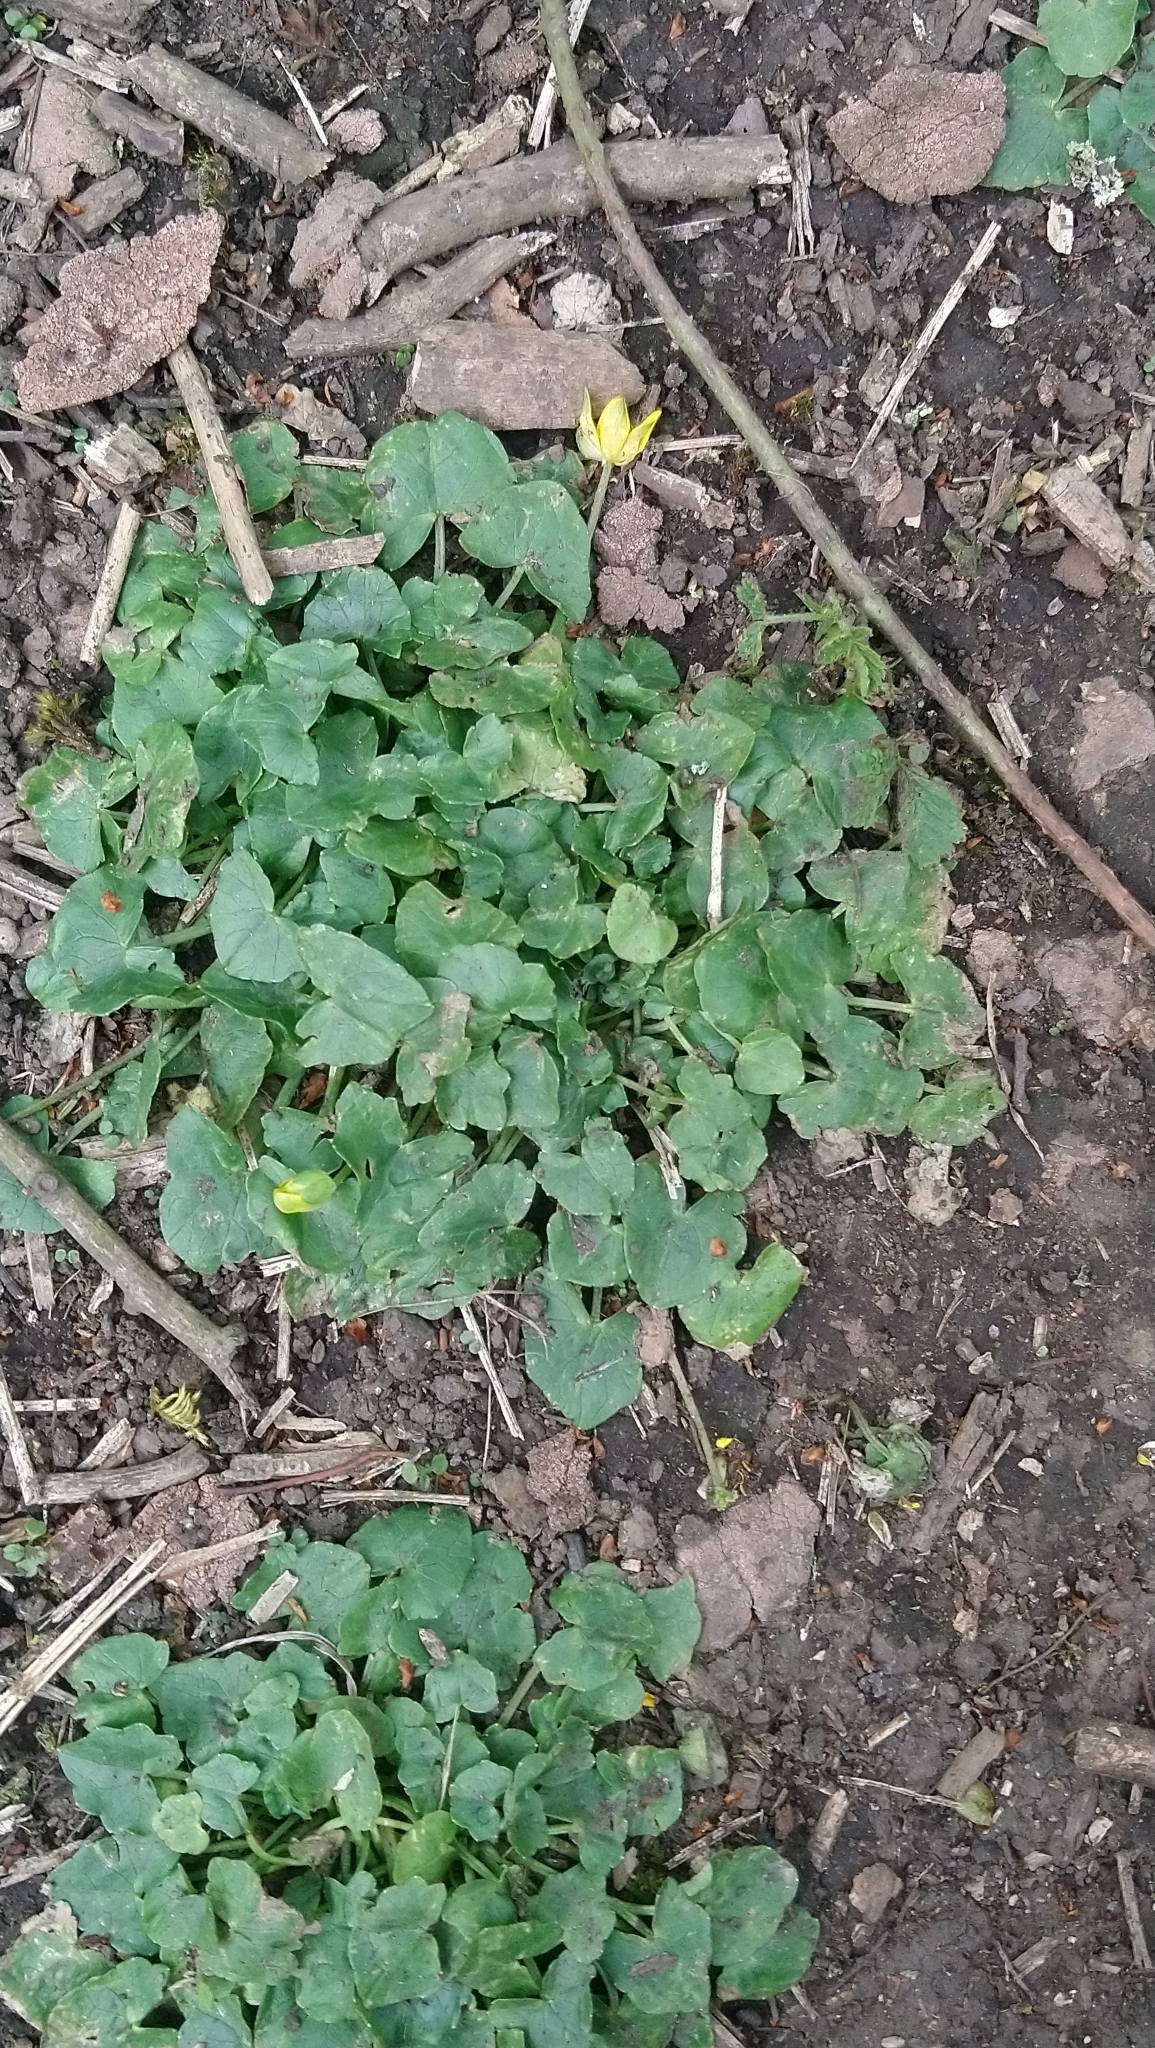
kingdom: Plantae
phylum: Tracheophyta
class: Magnoliopsida
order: Ranunculales
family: Ranunculaceae
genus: Ficaria
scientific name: Ficaria verna
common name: Lesser celandine
